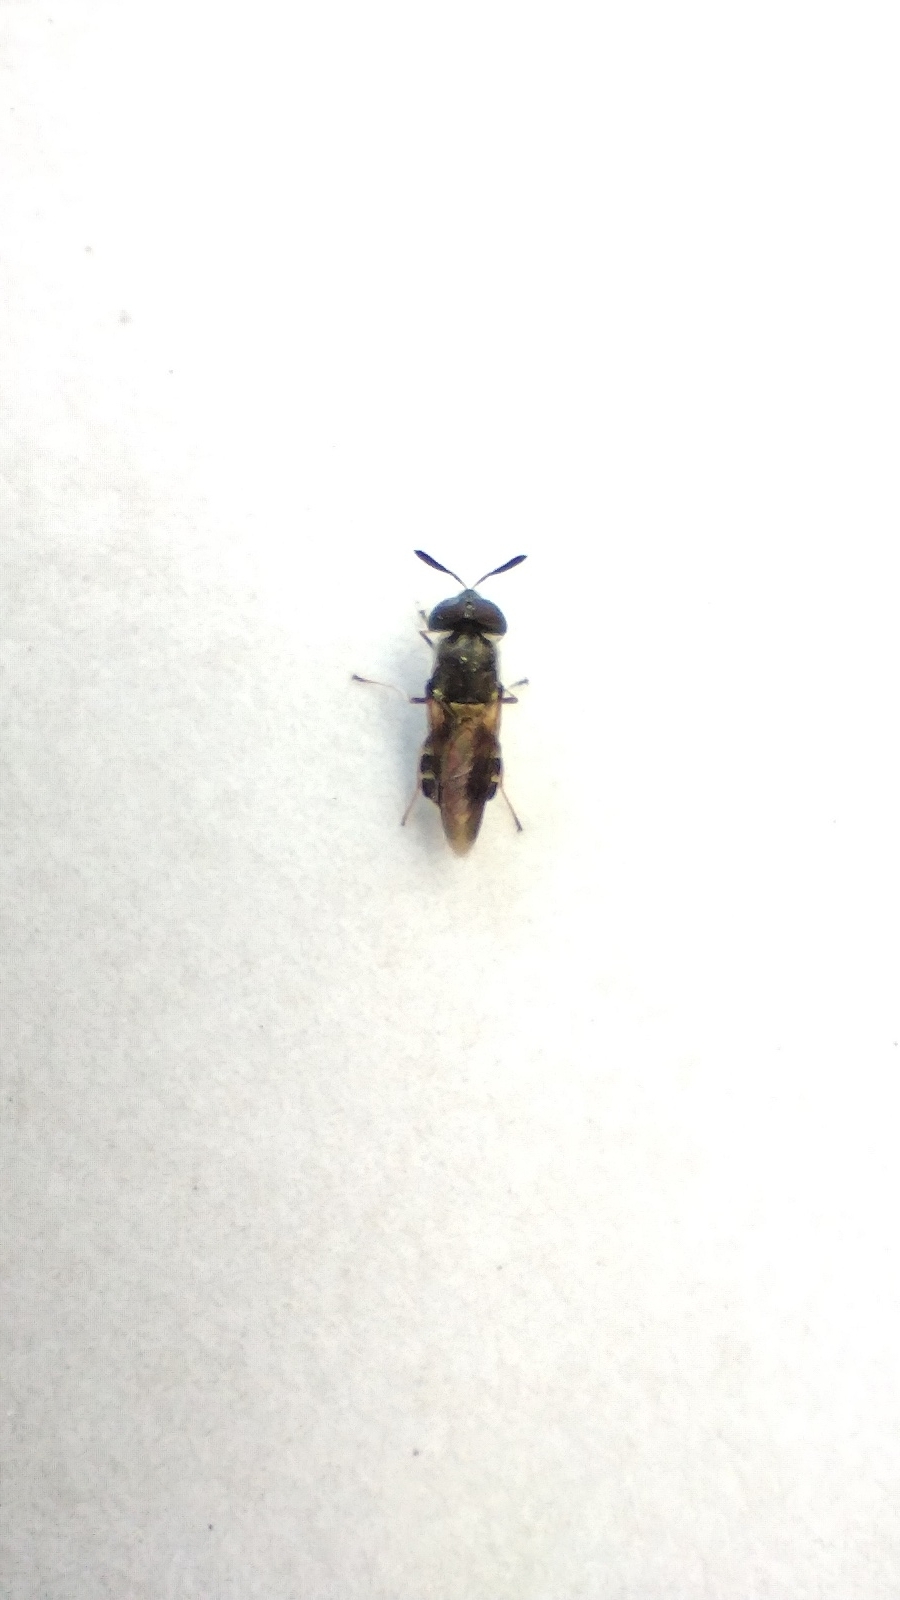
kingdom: Animalia
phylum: Arthropoda
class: Insecta
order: Diptera
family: Stratiomyidae
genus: Hoplitimyia
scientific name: Hoplitimyia subalba
